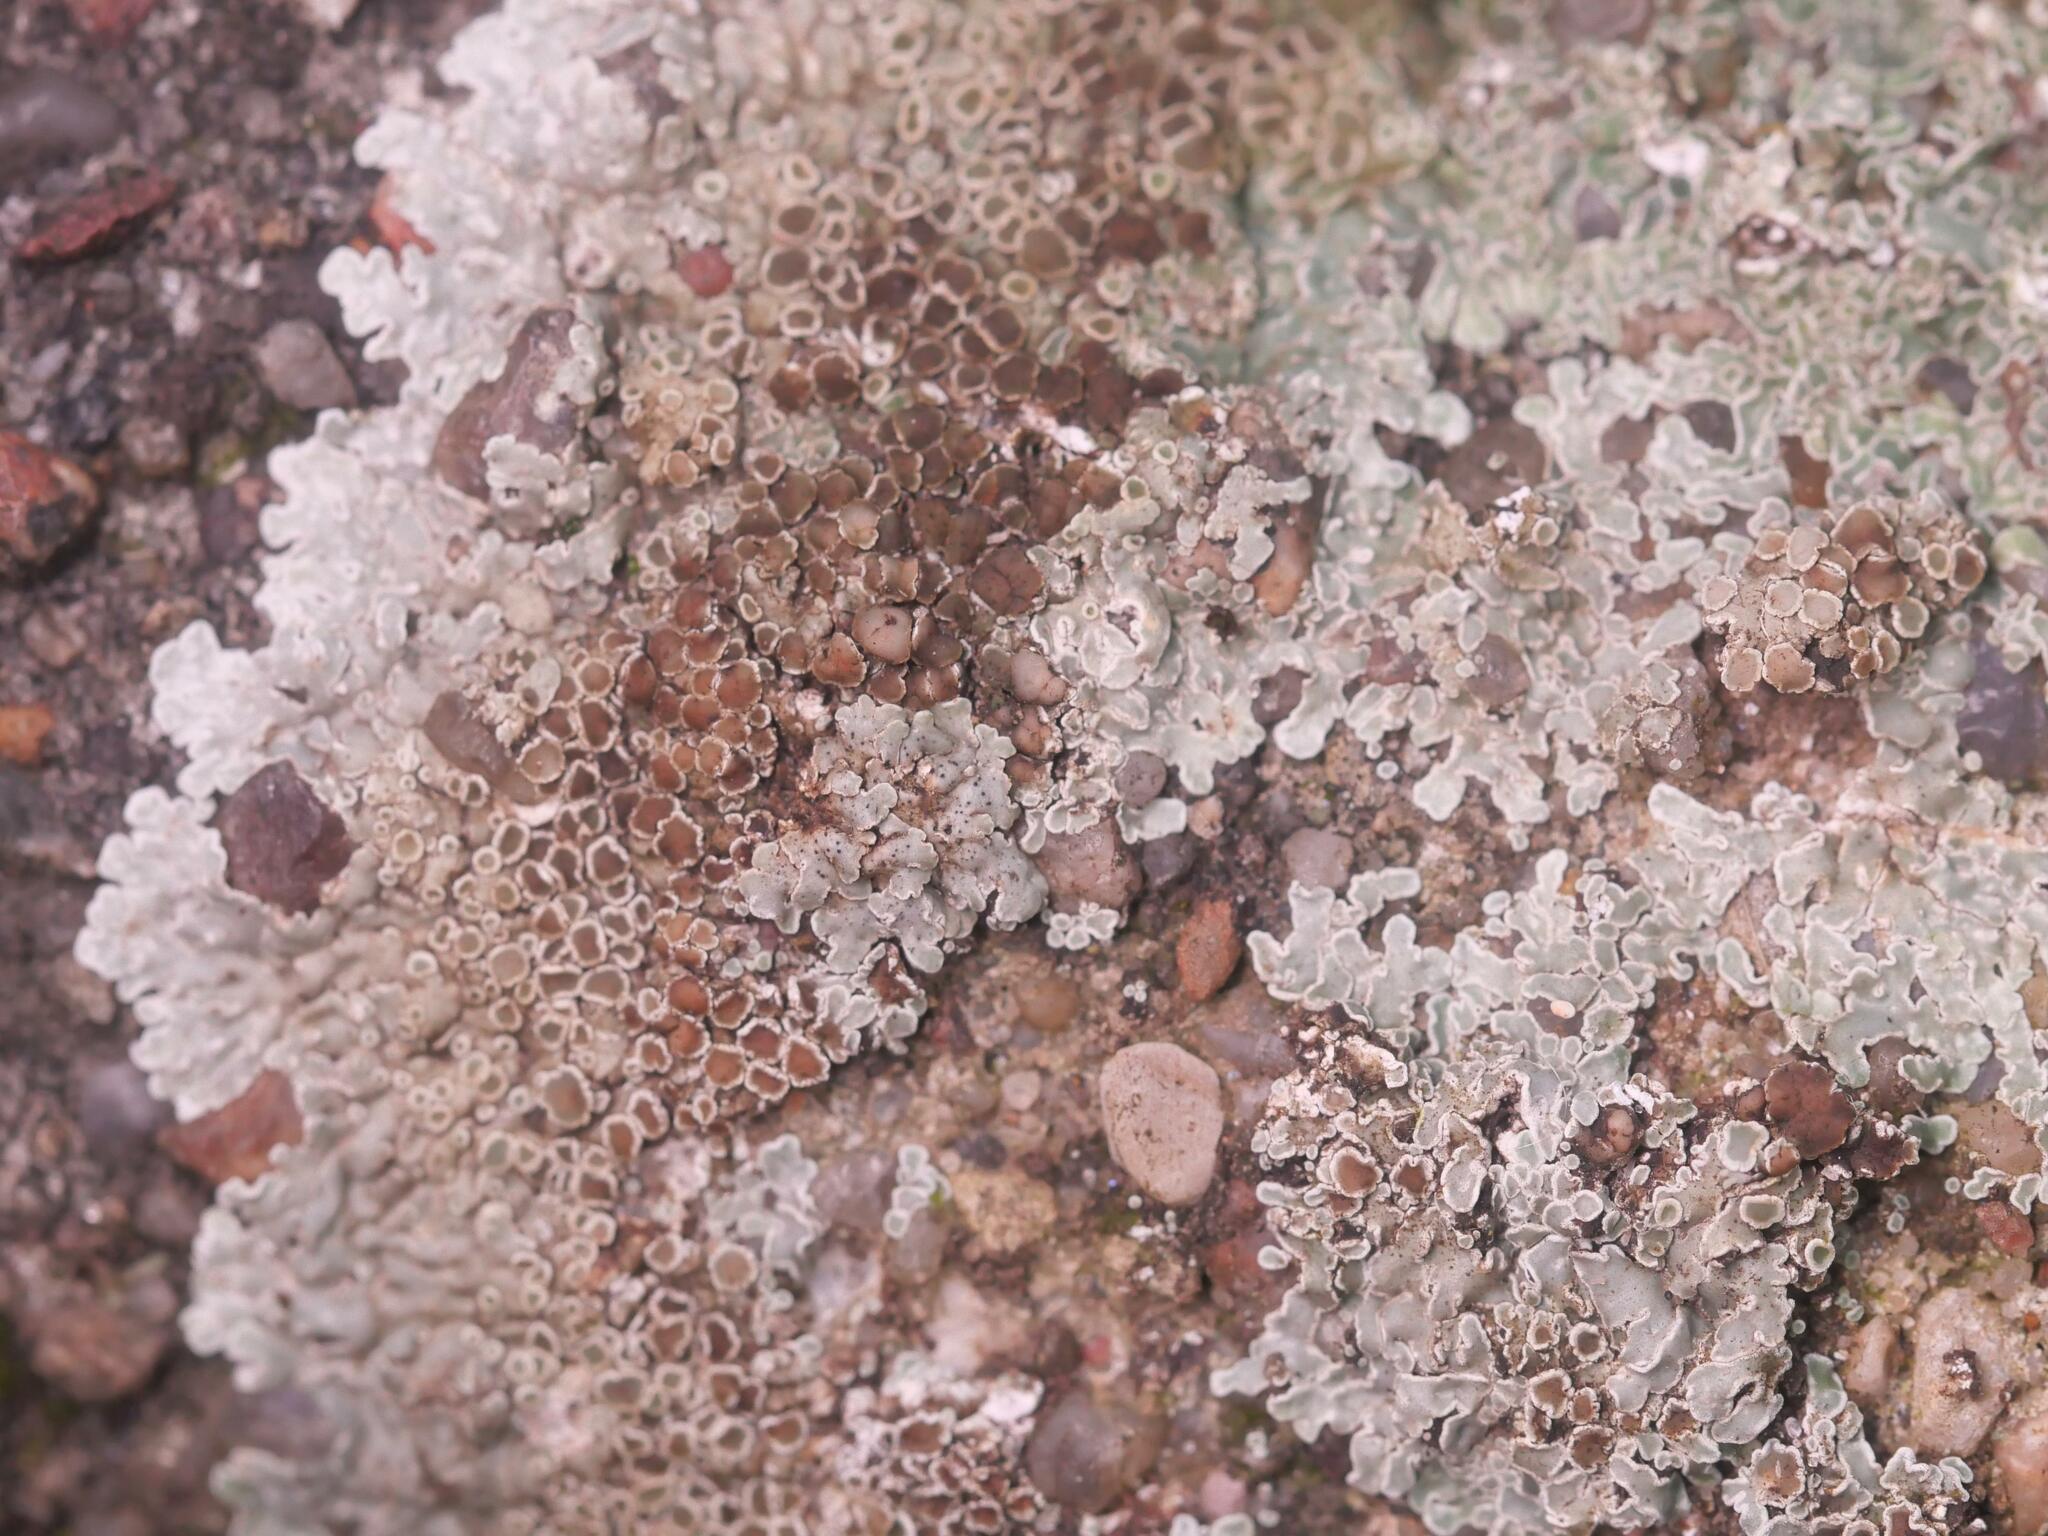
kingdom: Fungi
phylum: Ascomycota
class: Lecanoromycetes
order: Lecanorales
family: Lecanoraceae
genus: Protoparmeliopsis
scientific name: Protoparmeliopsis muralis
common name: Stonewall rim lichen
